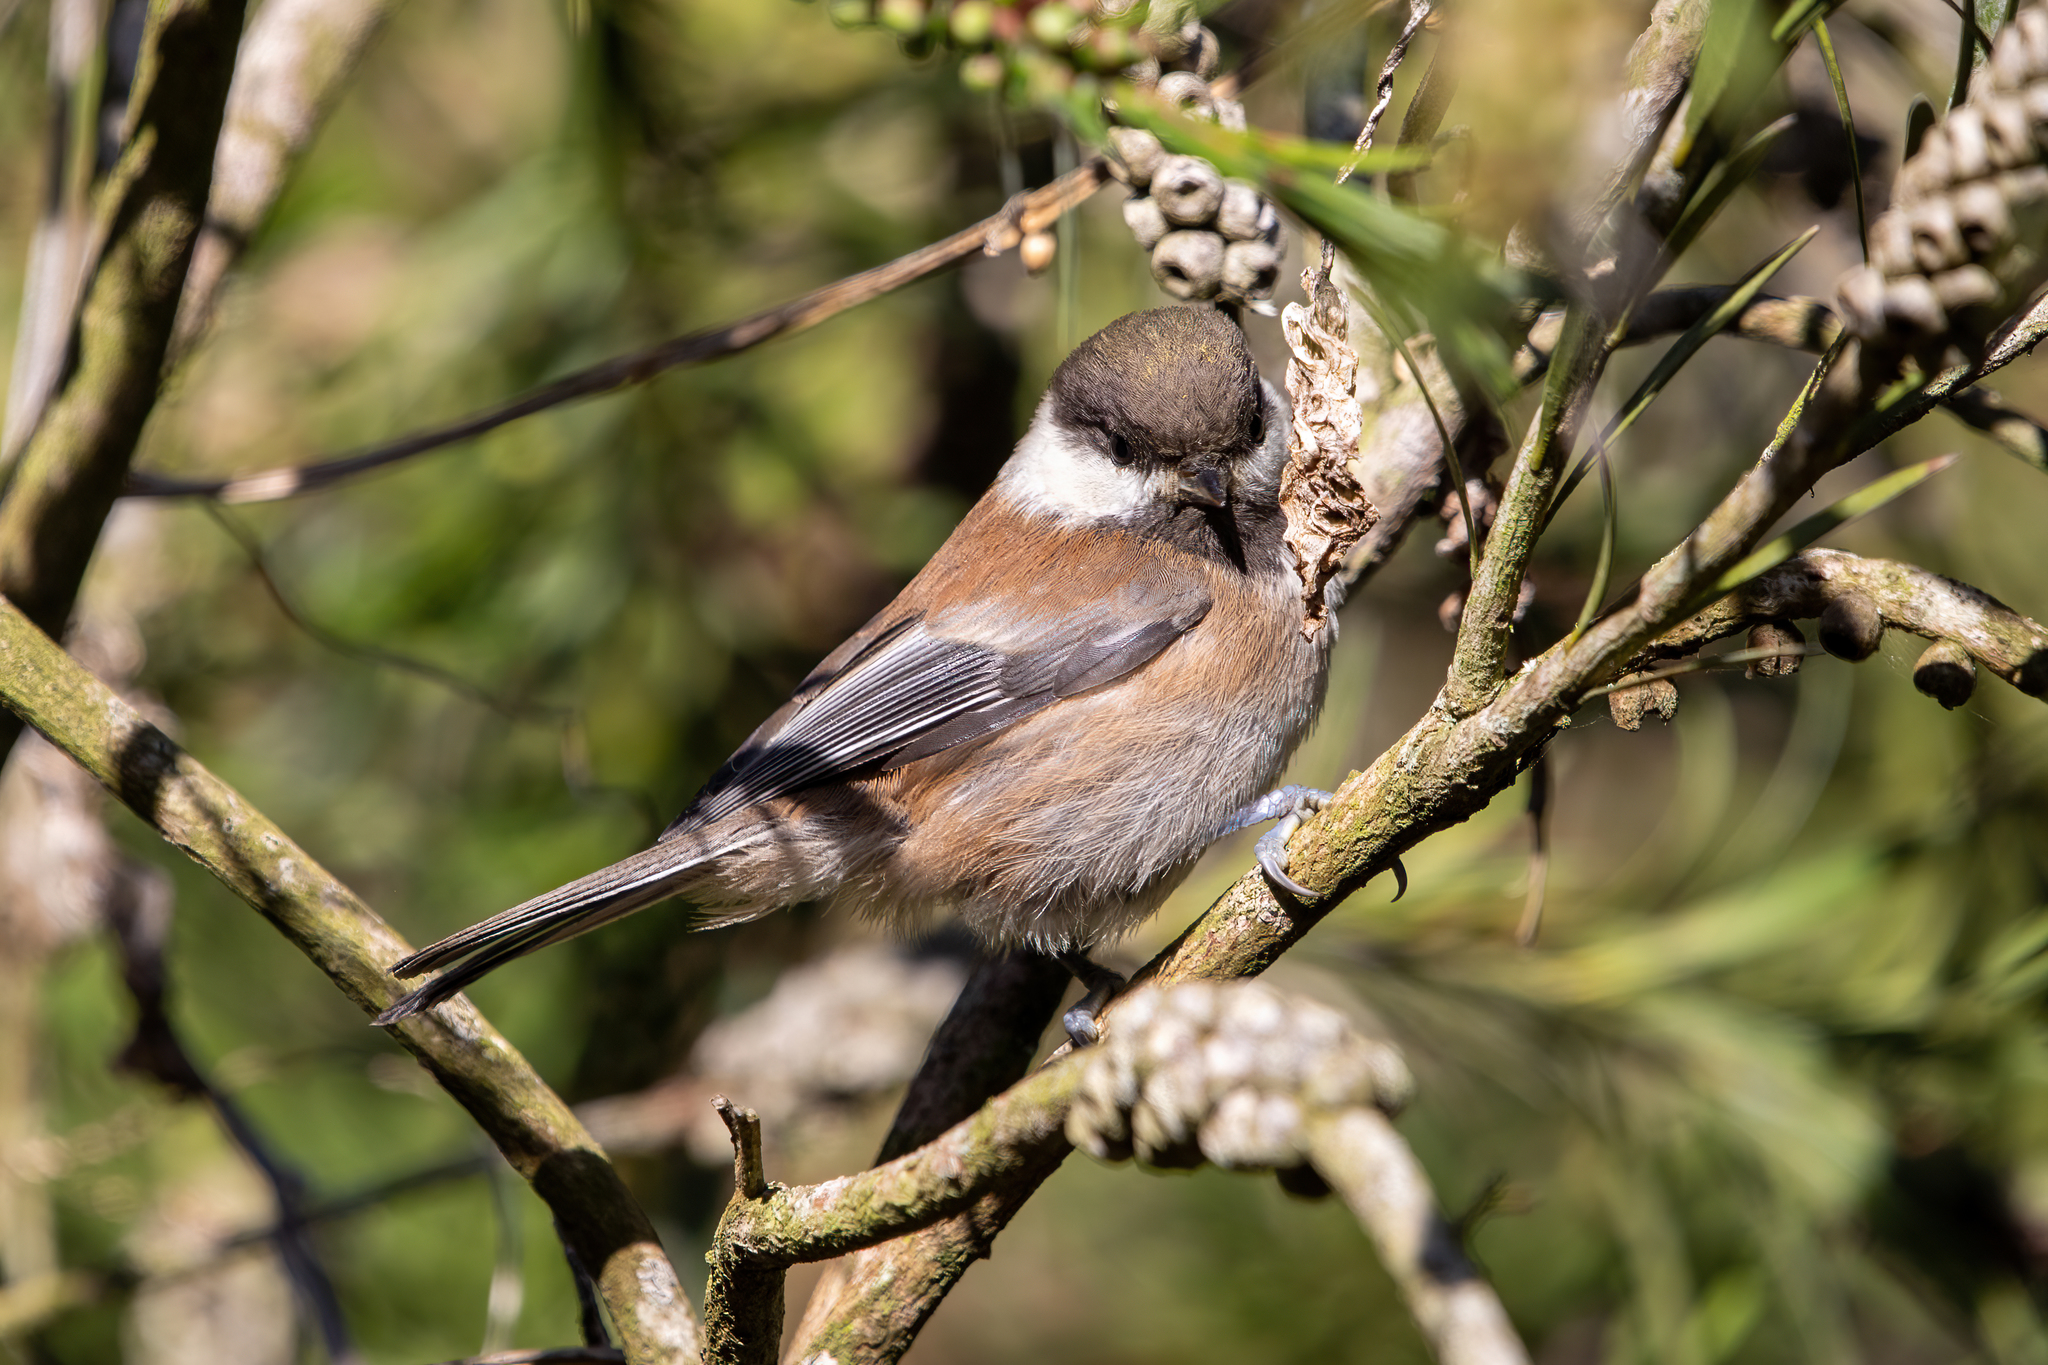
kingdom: Animalia
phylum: Chordata
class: Aves
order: Passeriformes
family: Paridae
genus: Poecile
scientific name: Poecile rufescens
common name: Chestnut-backed chickadee
